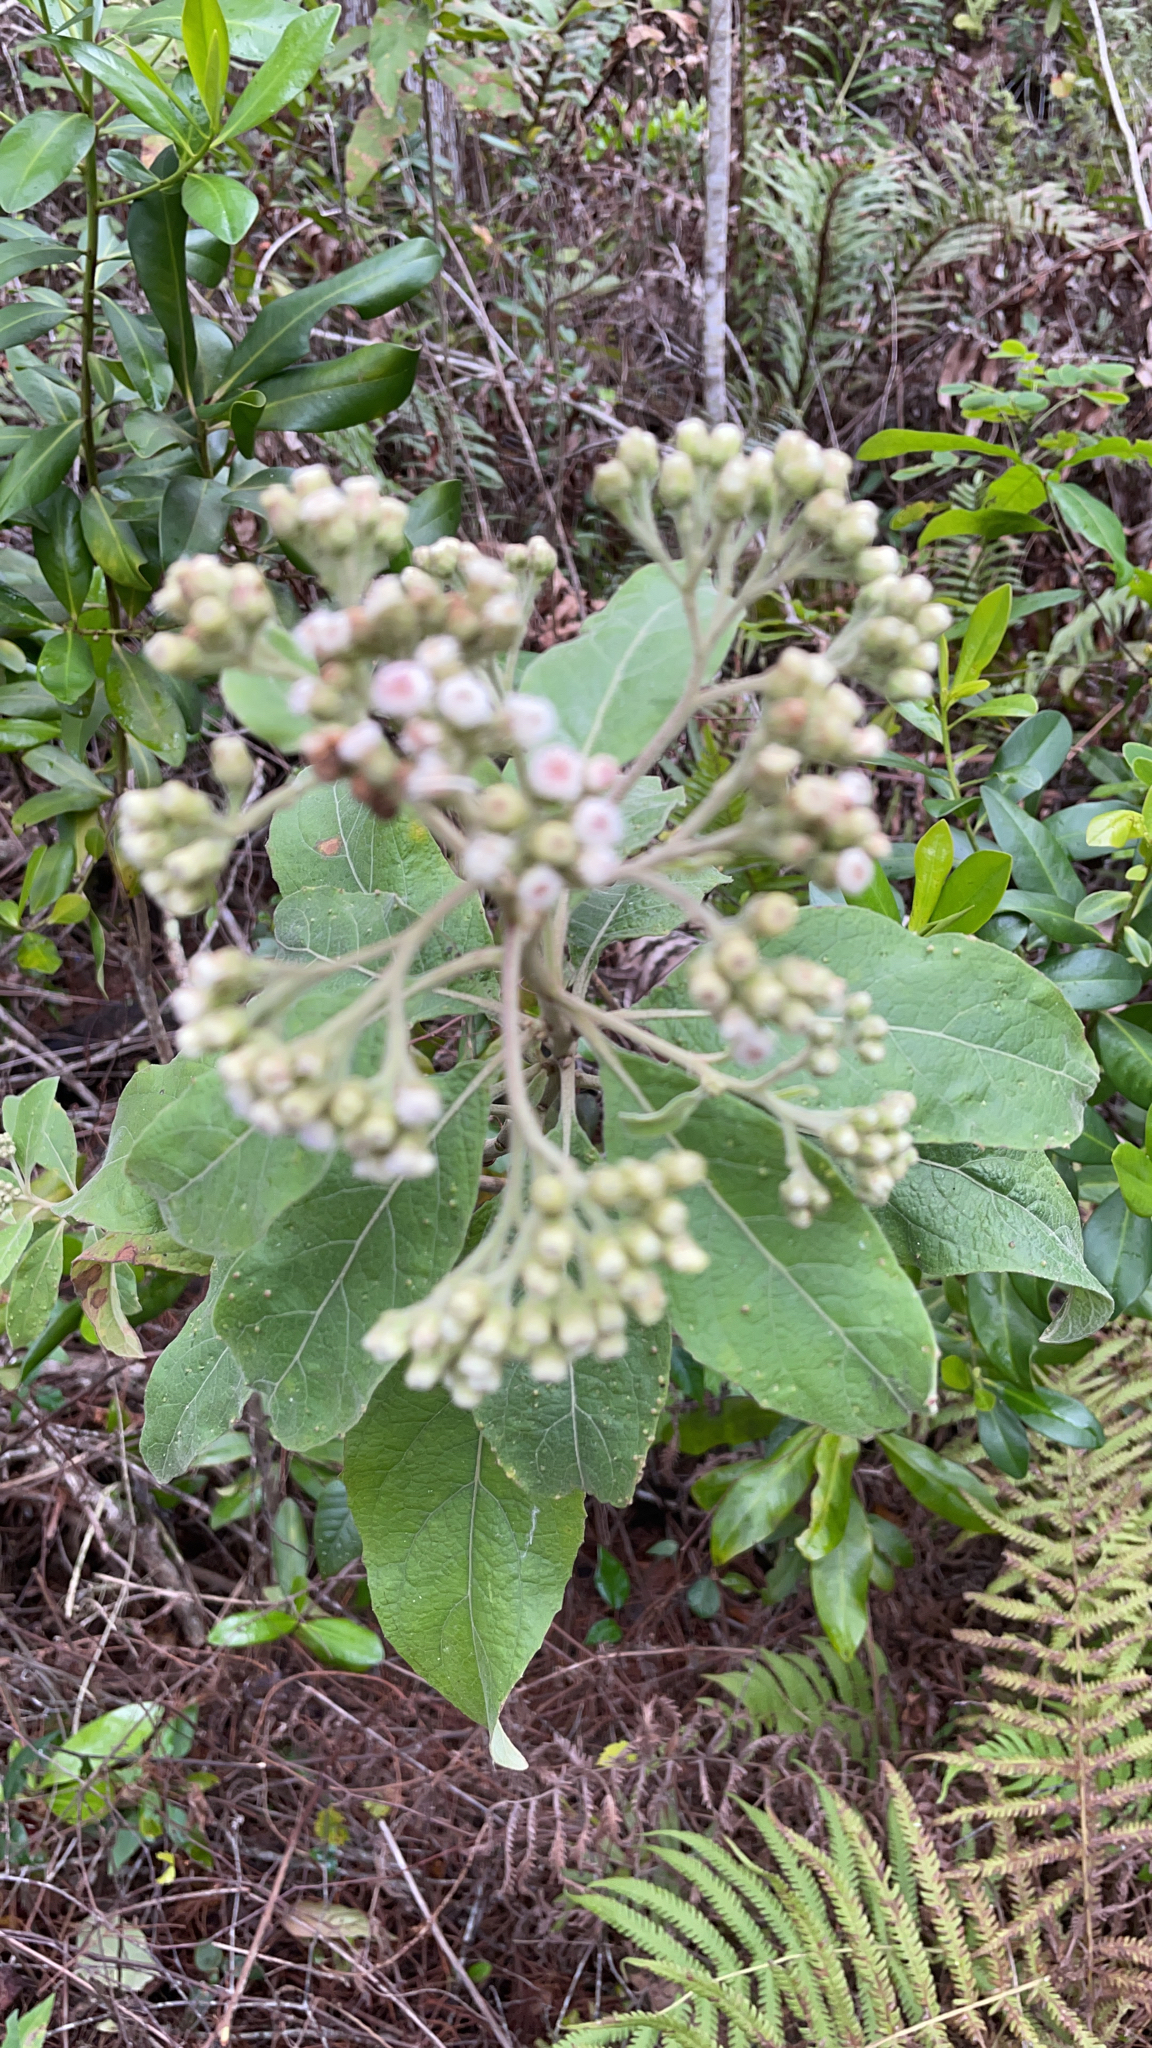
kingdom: Plantae
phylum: Tracheophyta
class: Magnoliopsida
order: Asterales
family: Asteraceae
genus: Pluchea
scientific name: Pluchea carolinensis
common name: Marsh fleabane
